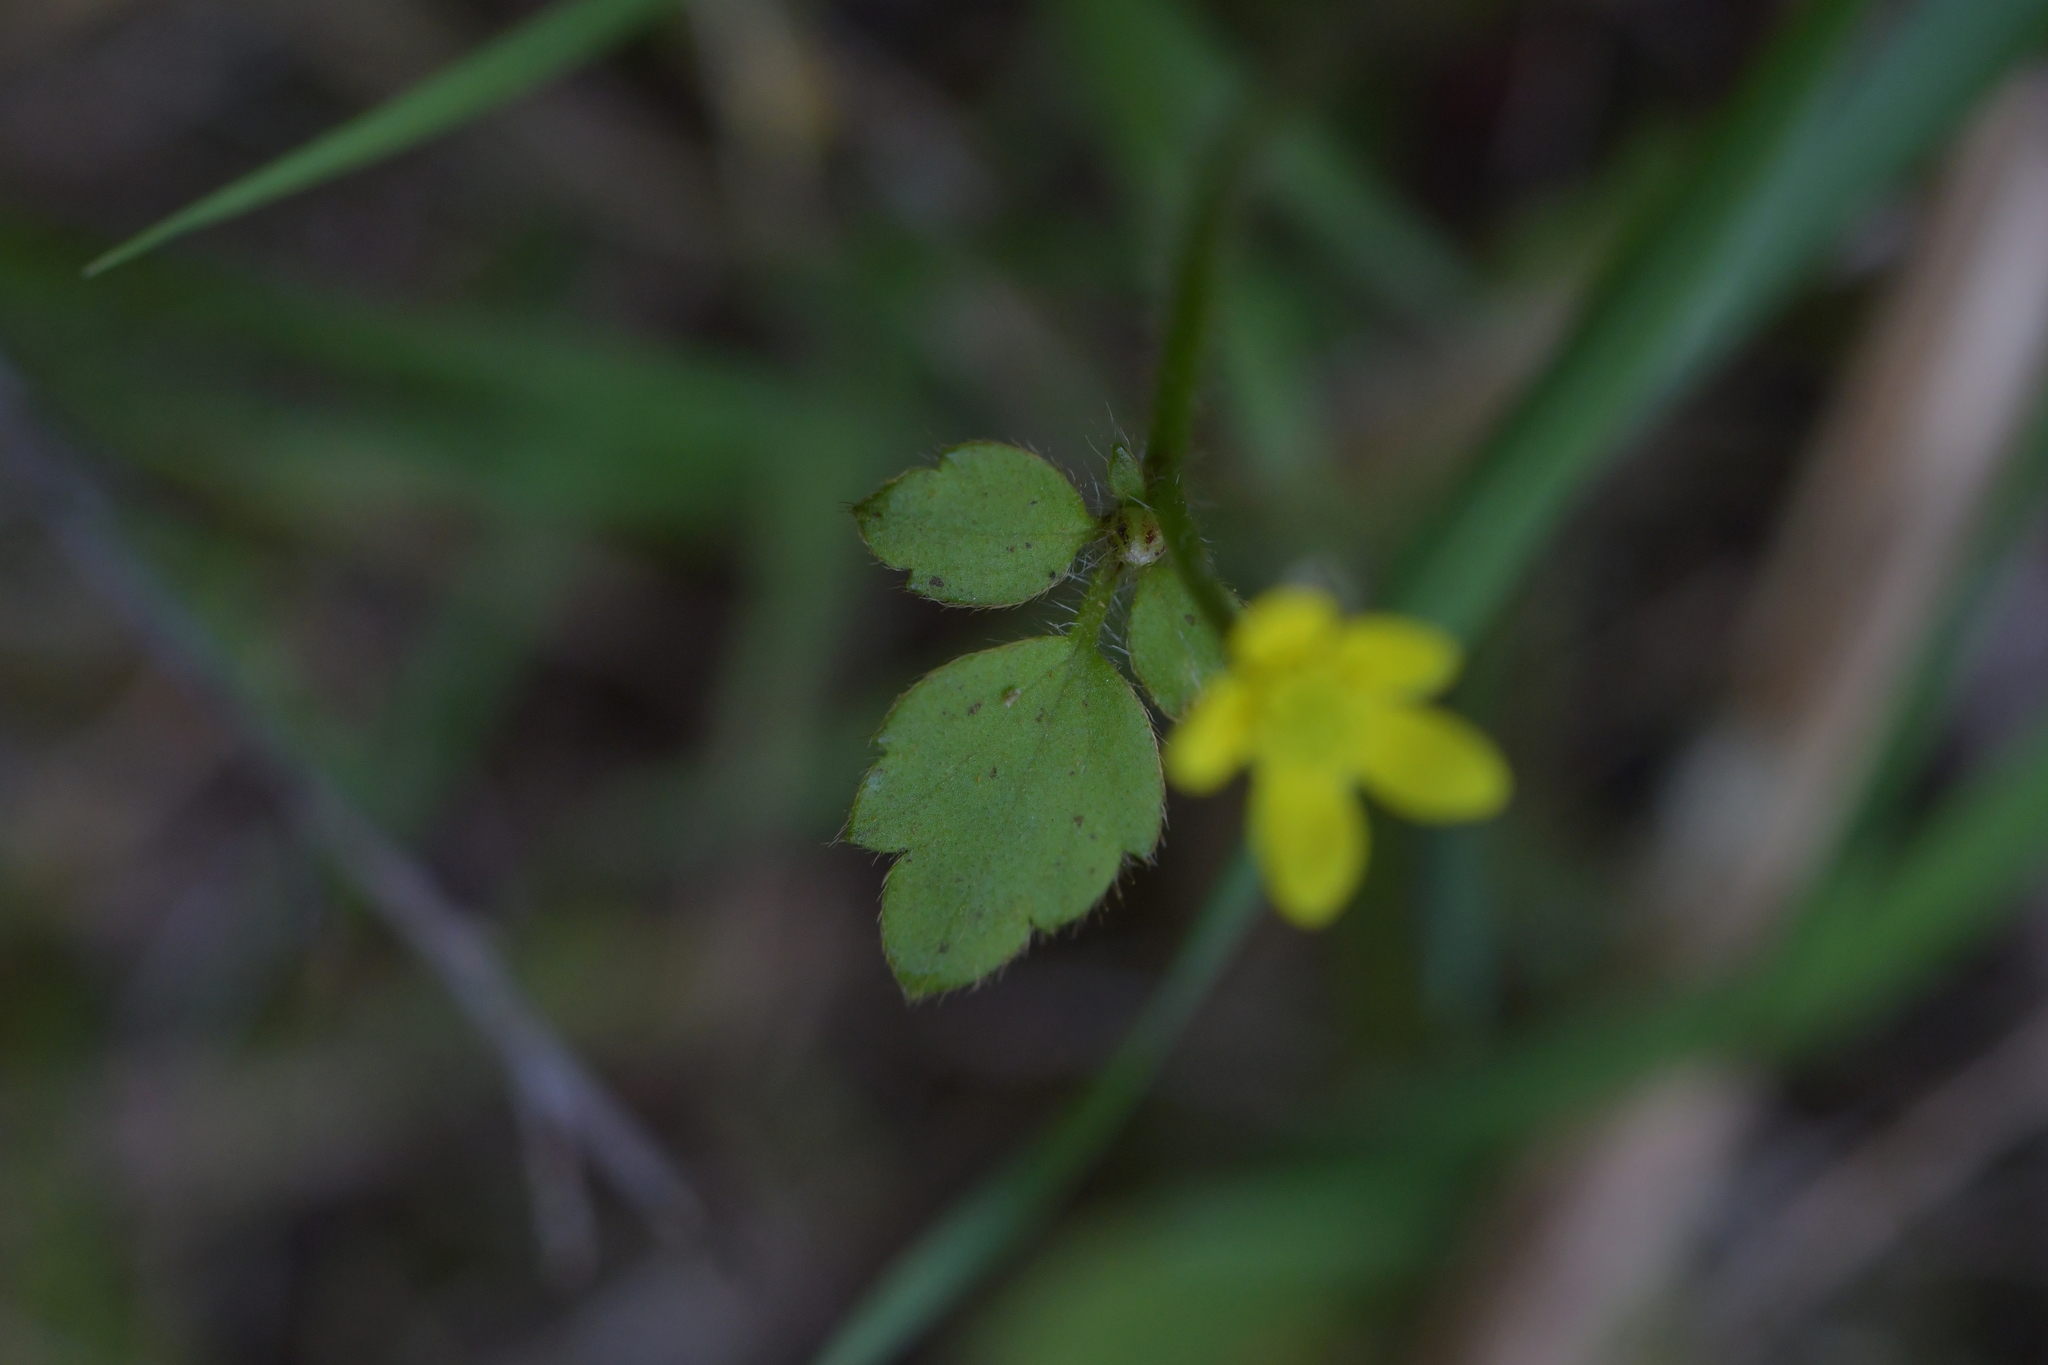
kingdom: Plantae
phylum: Tracheophyta
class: Magnoliopsida
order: Ranunculales
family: Ranunculaceae
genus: Ranunculus
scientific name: Ranunculus reflexus
